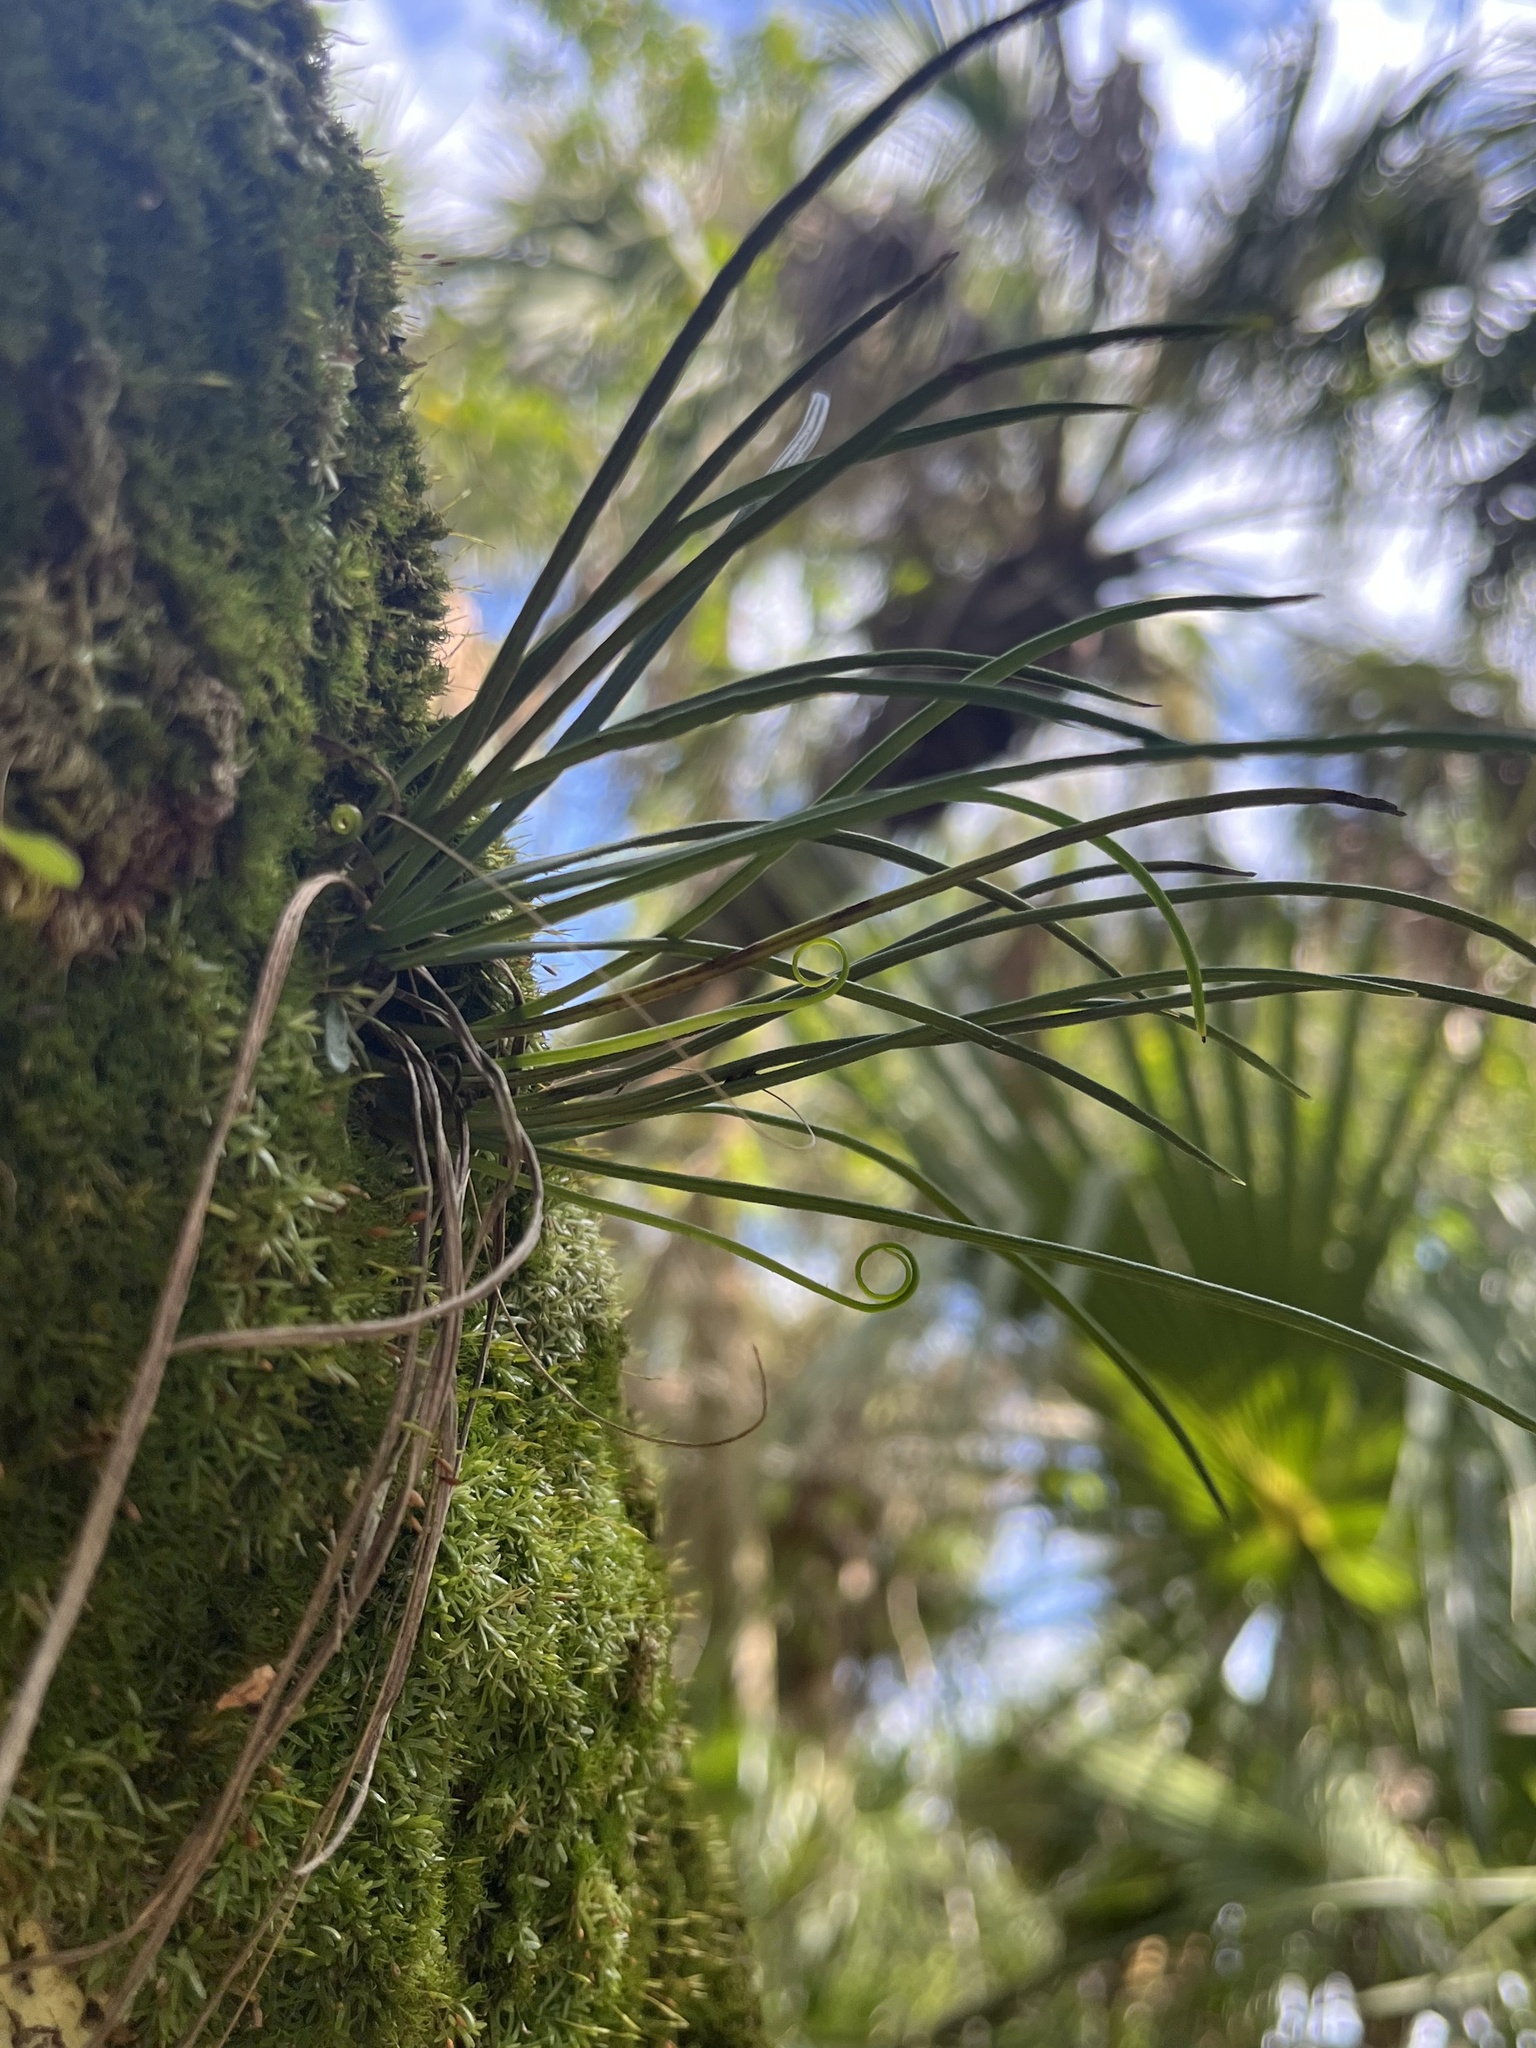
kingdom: Plantae
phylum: Tracheophyta
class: Polypodiopsida
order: Polypodiales
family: Pteridaceae
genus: Vittaria
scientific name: Vittaria lineata
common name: Shoestring fern
